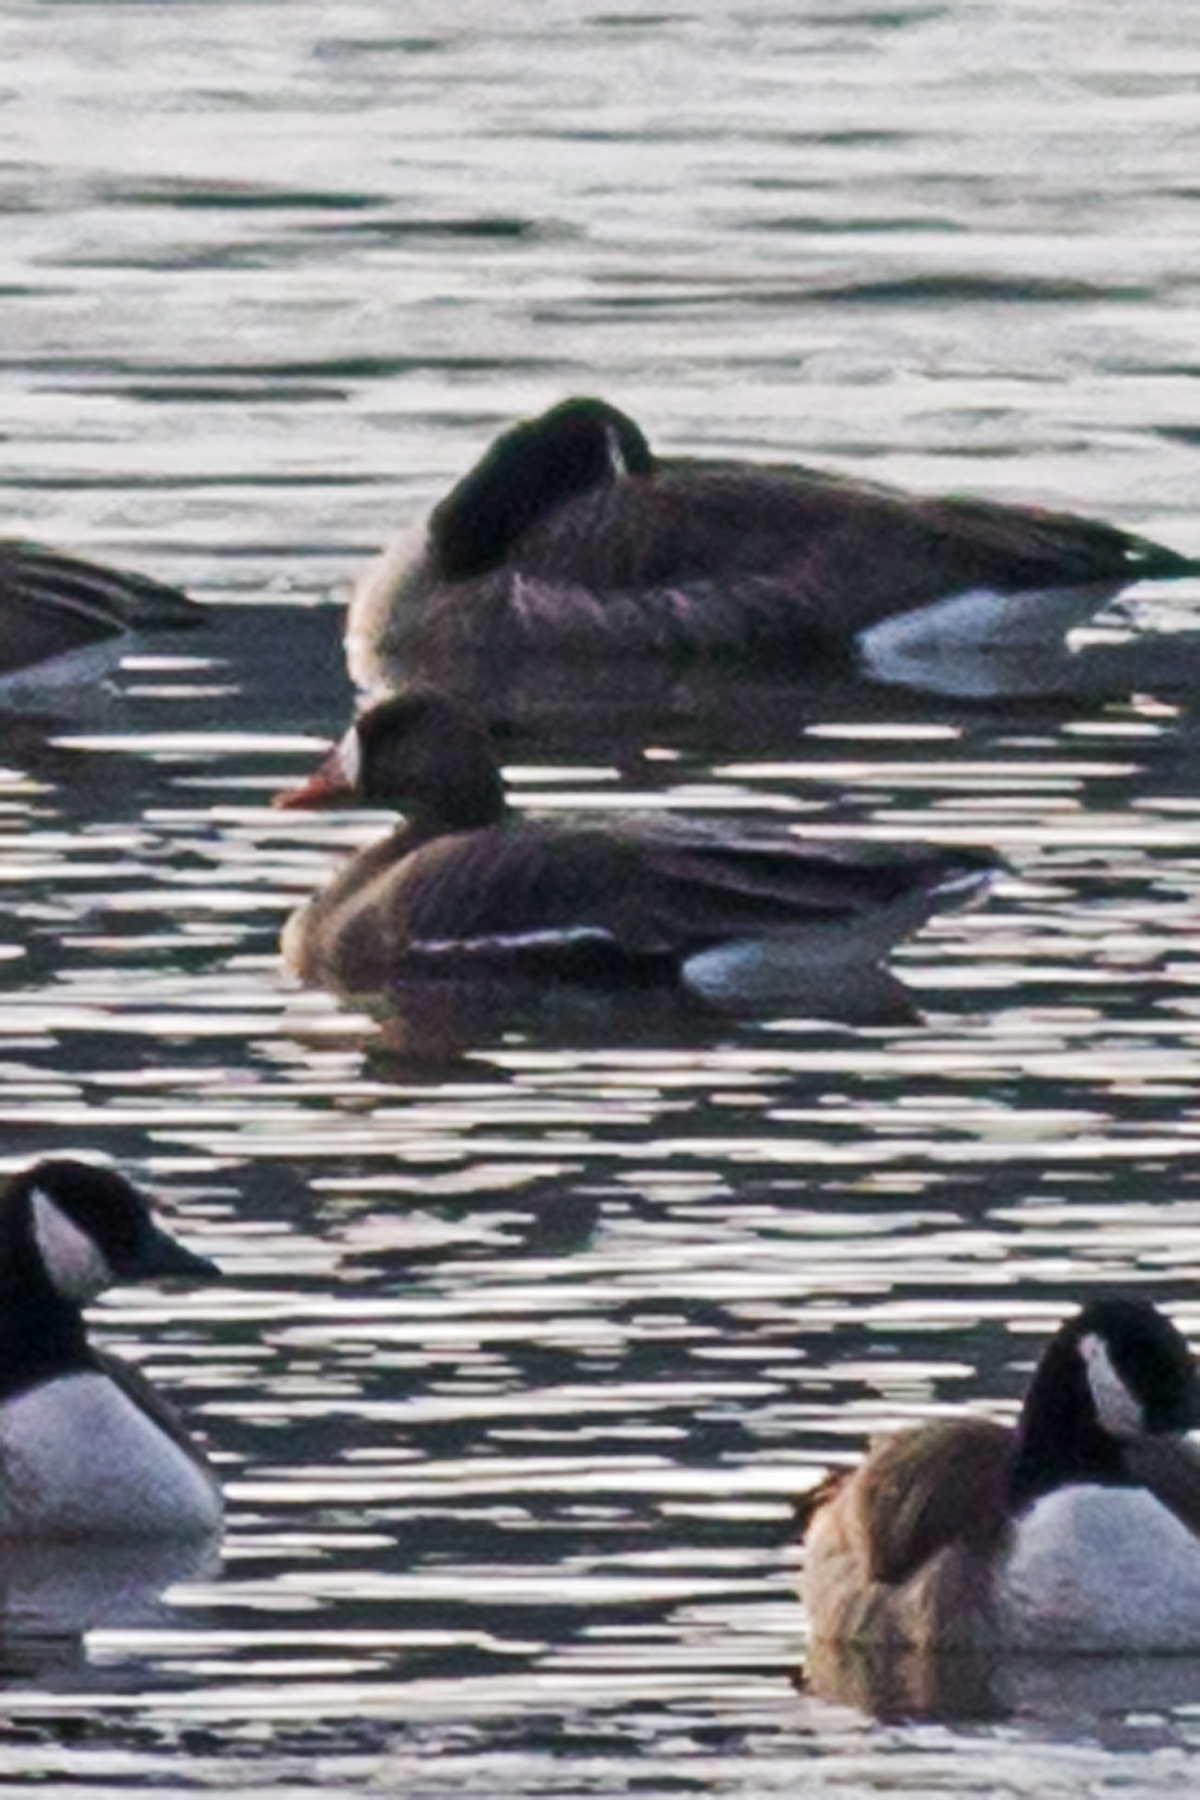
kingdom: Animalia
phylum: Chordata
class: Aves
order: Anseriformes
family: Anatidae
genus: Anser
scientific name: Anser albifrons
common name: Greater white-fronted goose
